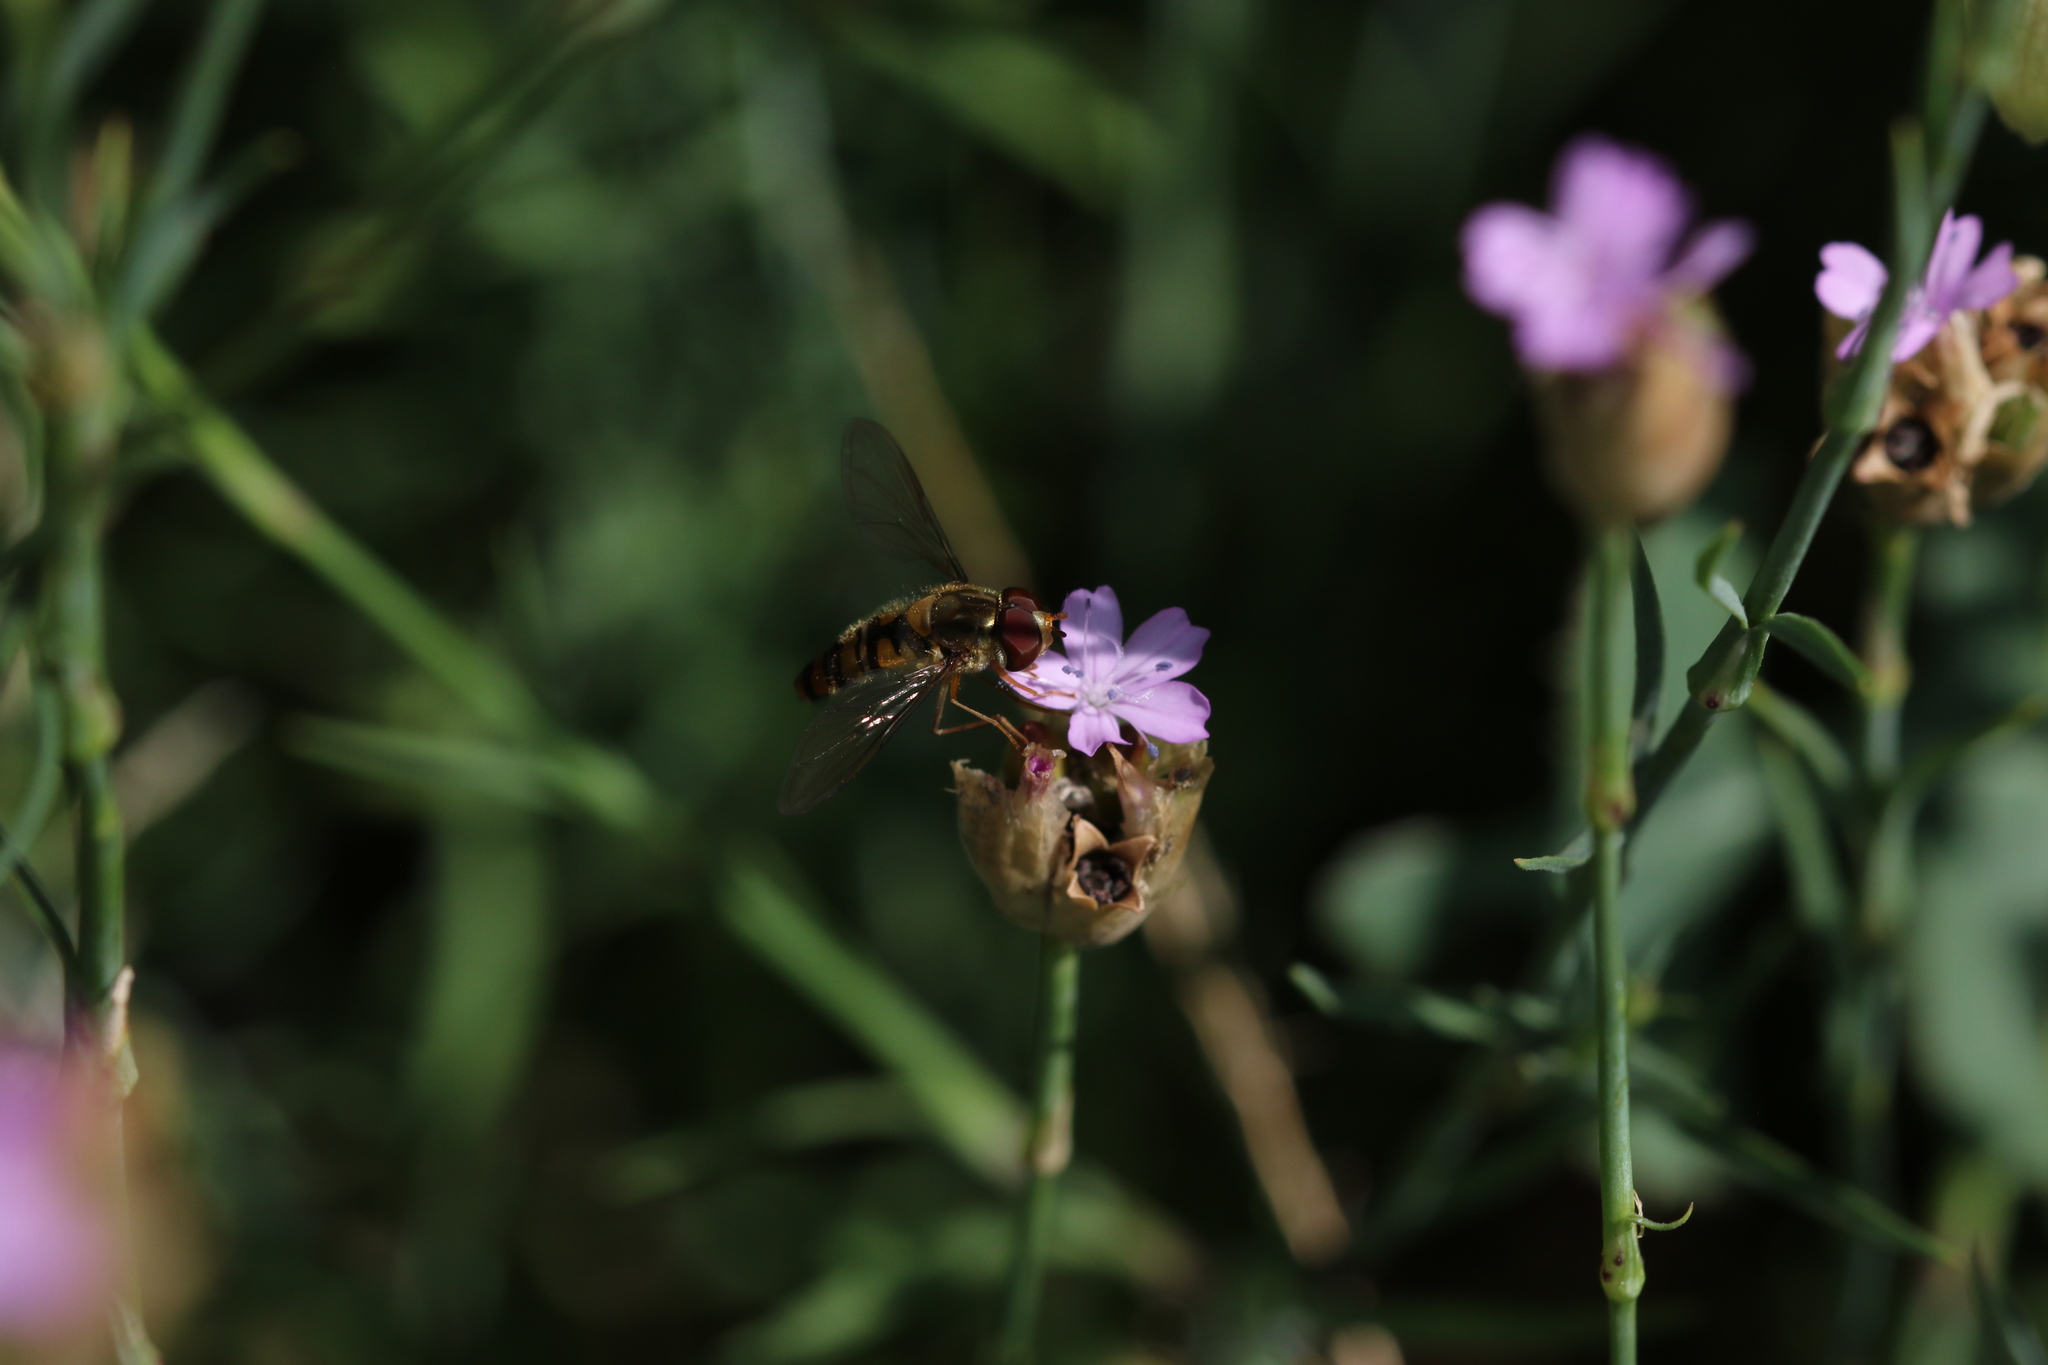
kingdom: Animalia
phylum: Arthropoda
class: Insecta
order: Diptera
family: Syrphidae
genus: Episyrphus
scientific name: Episyrphus balteatus
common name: Marmalade hoverfly
